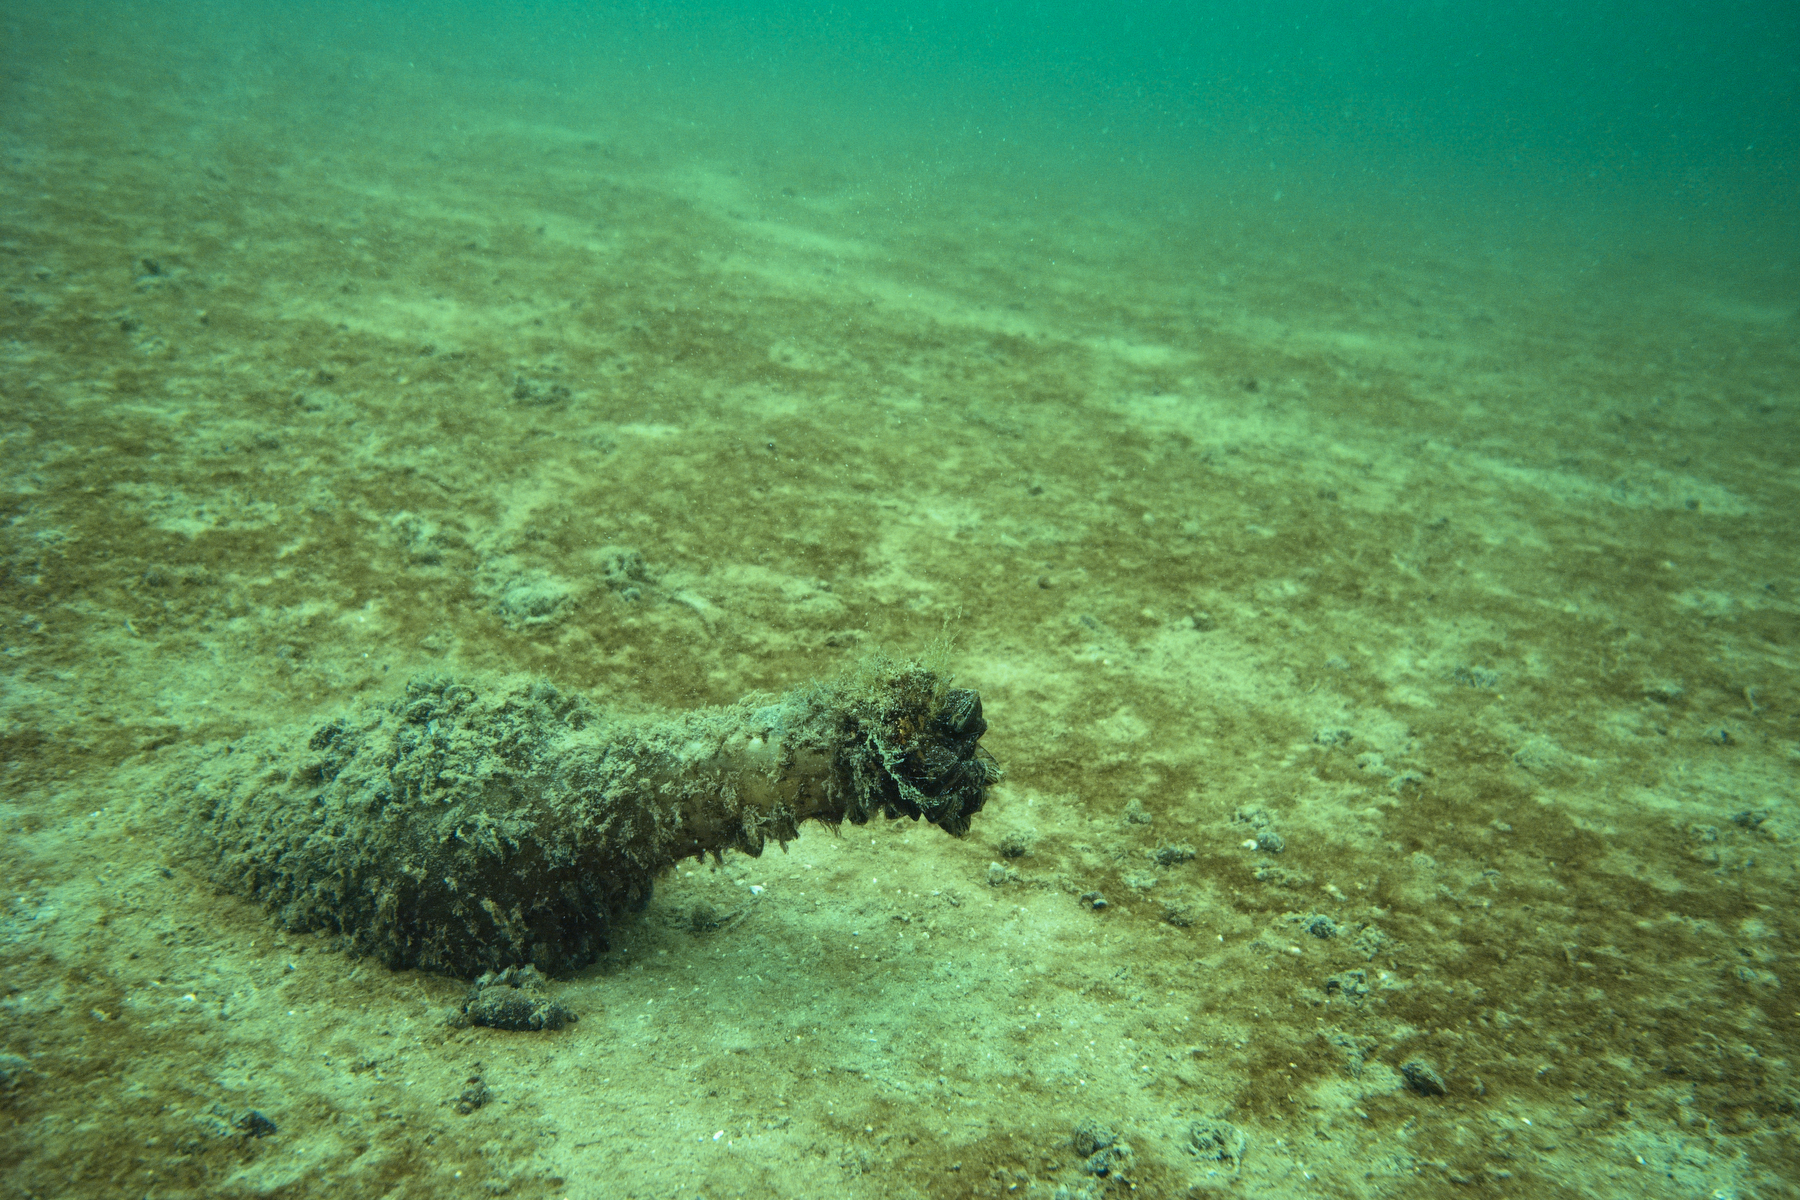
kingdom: Animalia
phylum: Mollusca
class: Bivalvia
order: Myida
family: Dreissenidae
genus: Dreissena
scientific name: Dreissena polymorpha
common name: Zebra mussel
